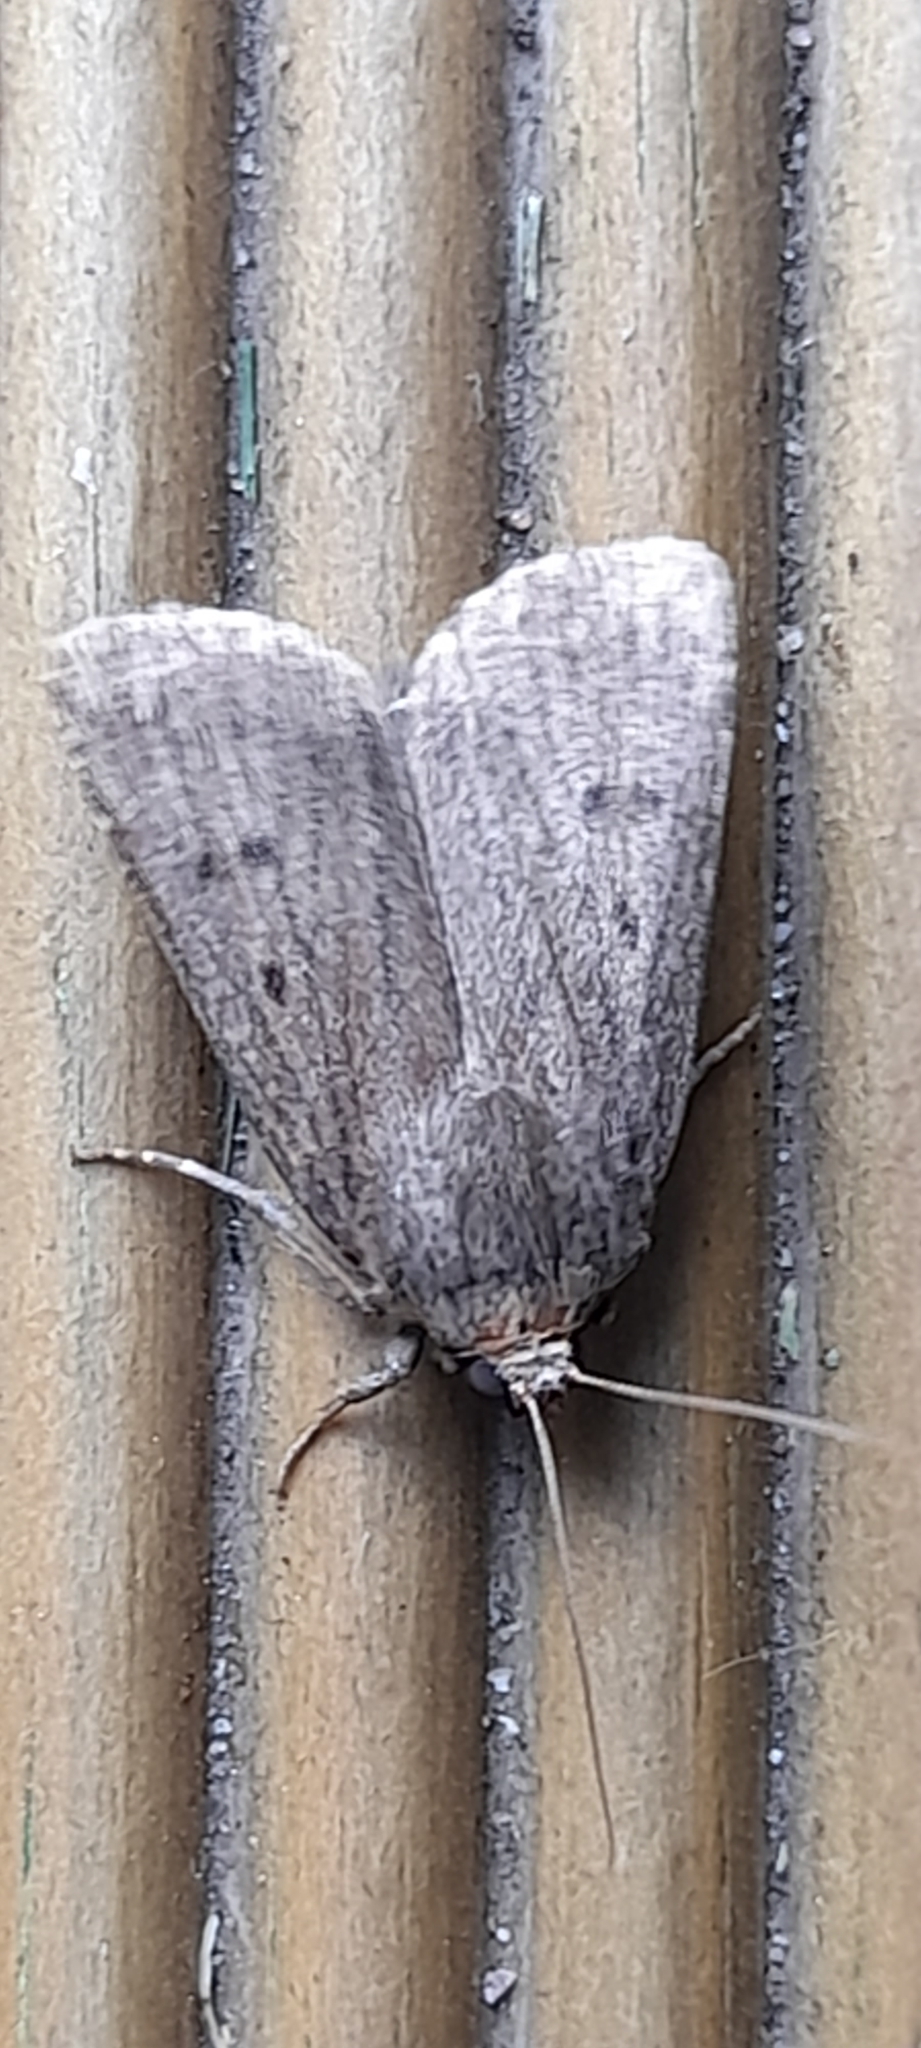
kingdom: Animalia
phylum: Arthropoda
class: Insecta
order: Lepidoptera
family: Noctuidae
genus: Amphipyra
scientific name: Amphipyra tragopoginis
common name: Mouse moth
